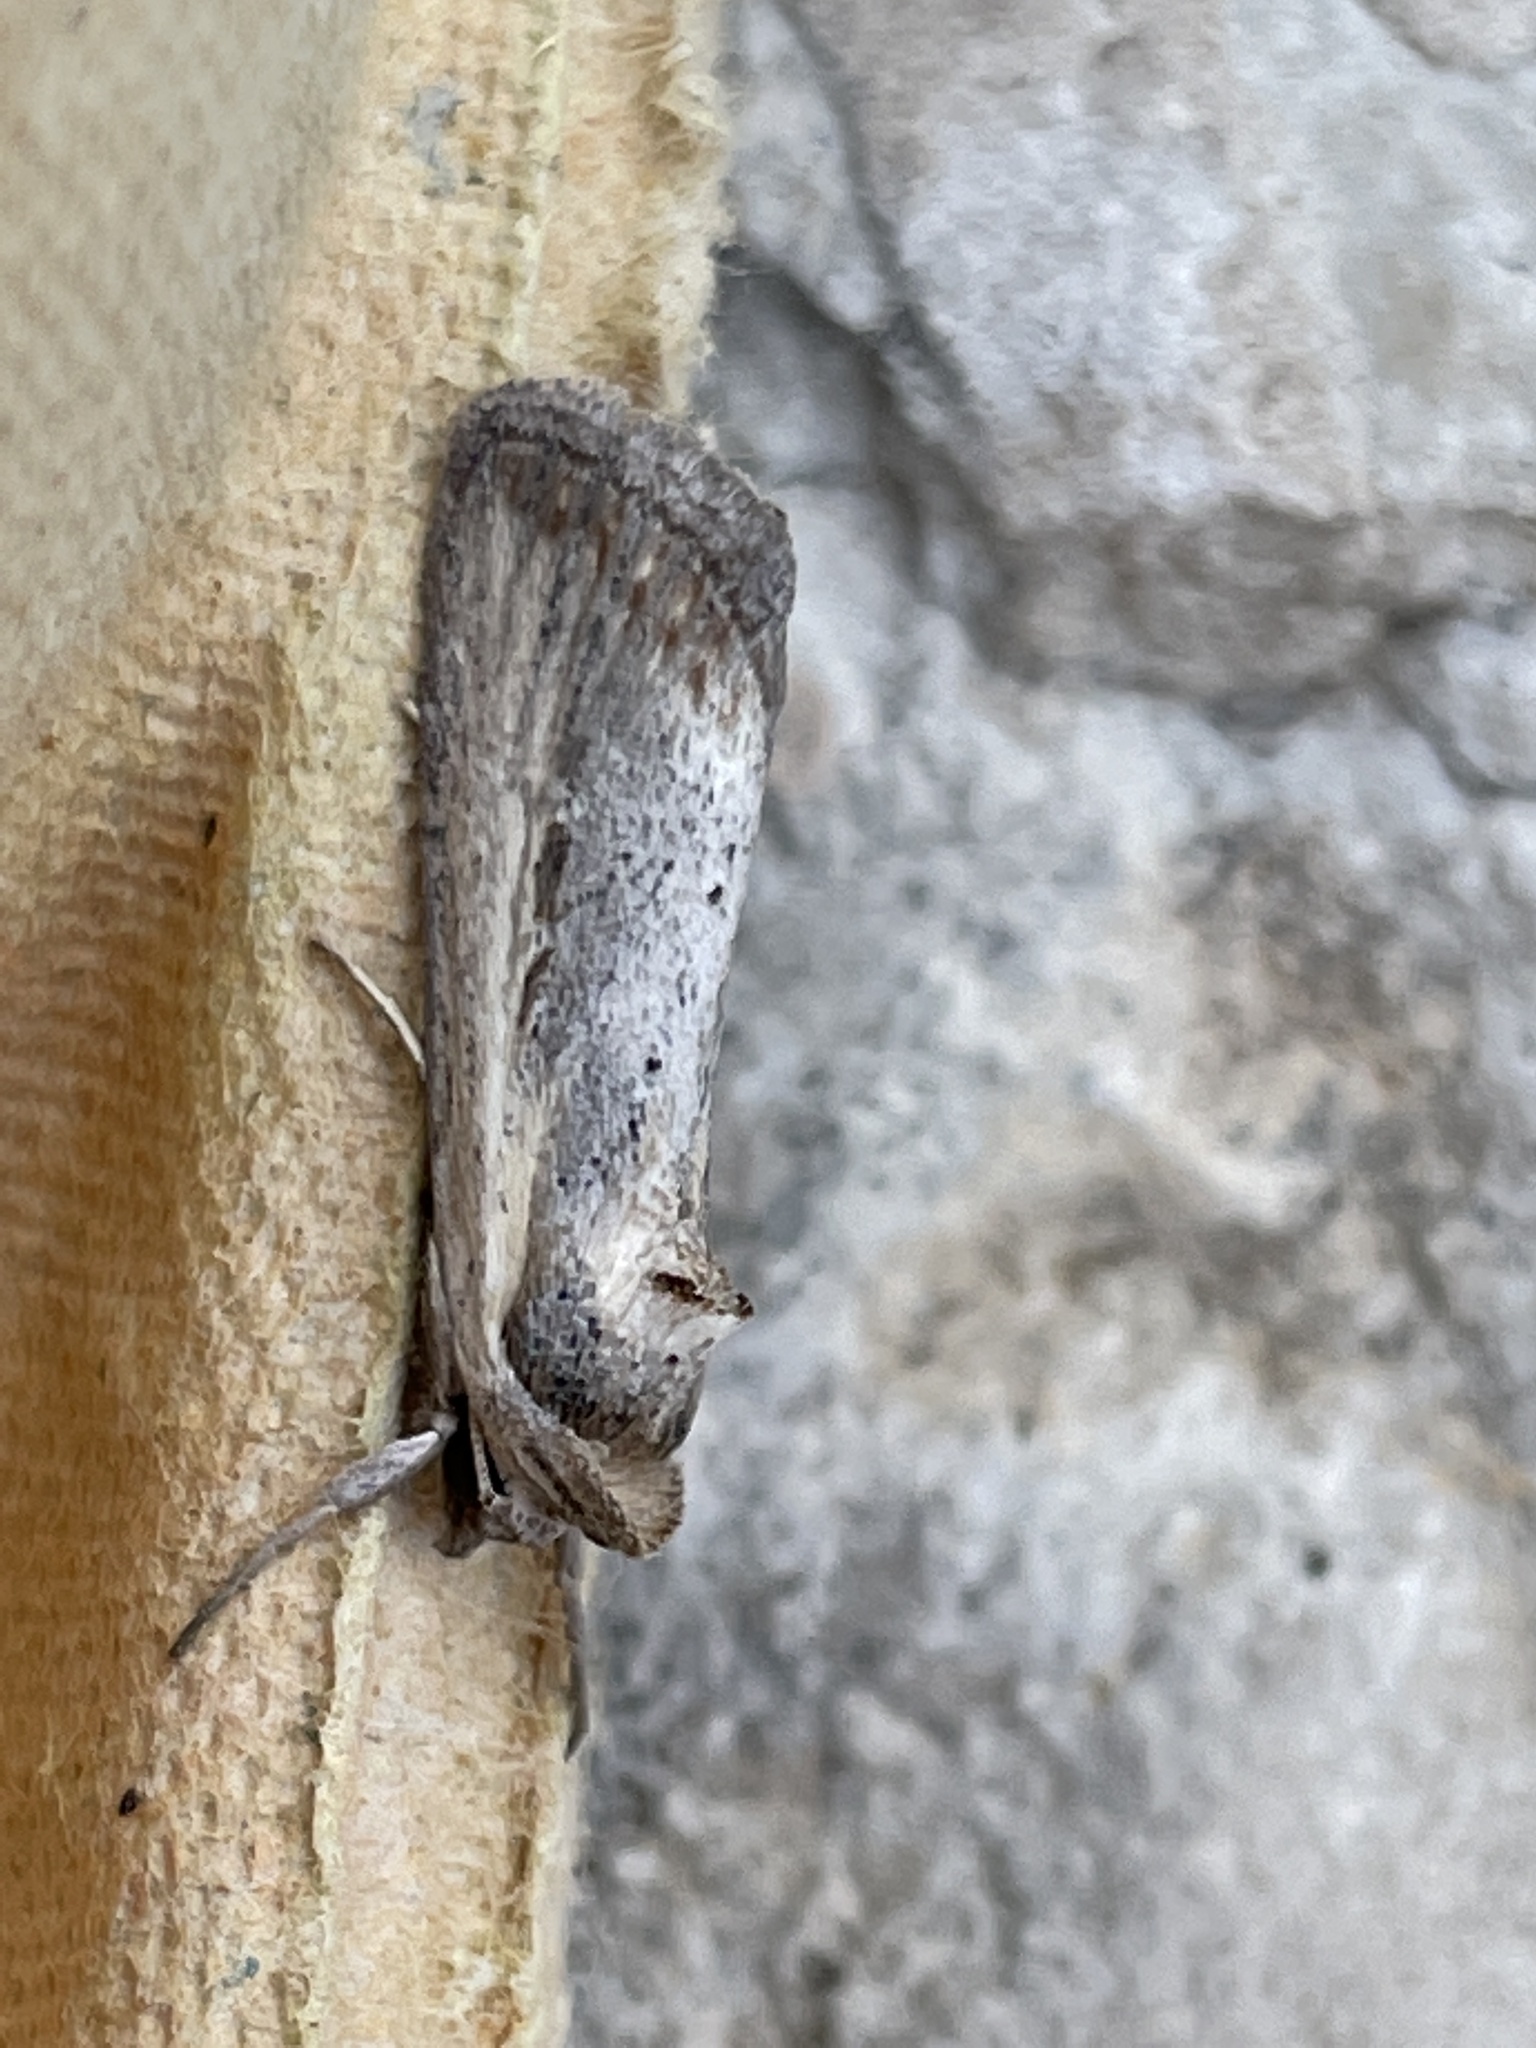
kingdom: Animalia
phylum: Arthropoda
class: Insecta
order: Lepidoptera
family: Noctuidae
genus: Epimecia
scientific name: Epimecia ustula
